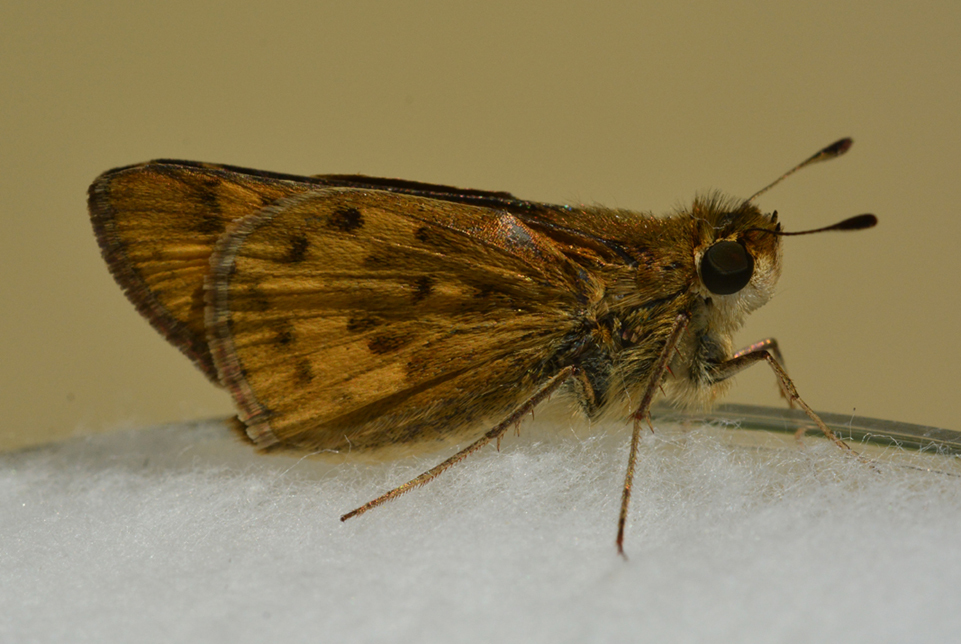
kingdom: Animalia
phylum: Arthropoda
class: Insecta
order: Lepidoptera
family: Hesperiidae
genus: Hylephila
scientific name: Hylephila phyleus
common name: Fiery skipper
